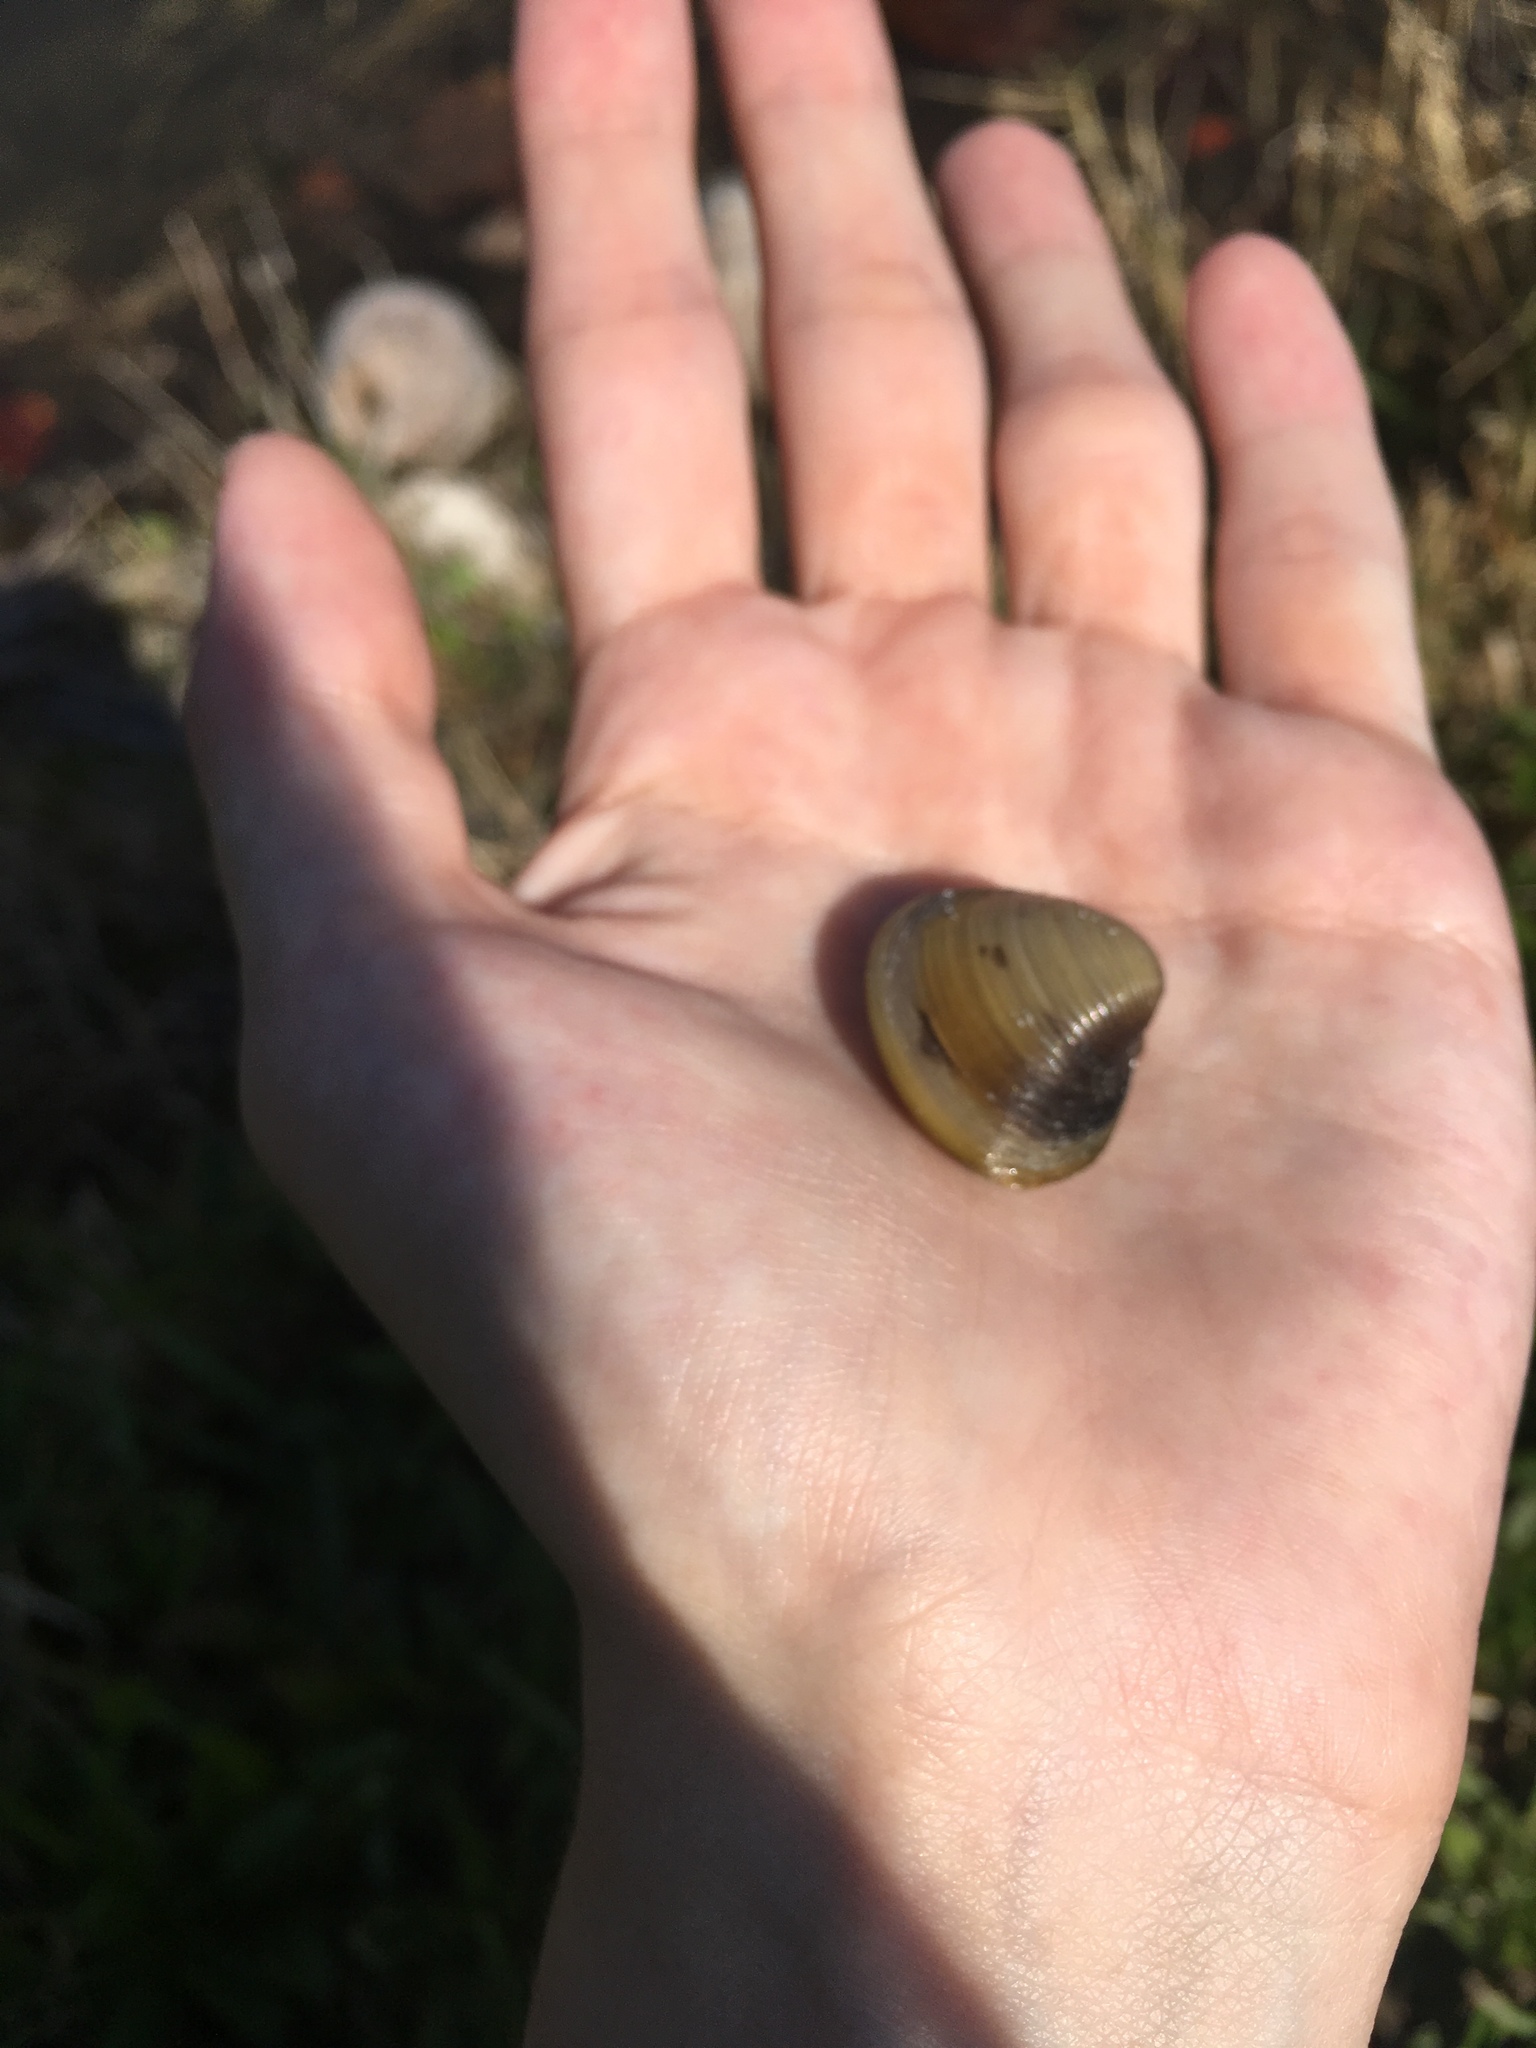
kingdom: Animalia
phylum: Mollusca
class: Bivalvia
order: Venerida
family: Cyrenidae
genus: Corbicula
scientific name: Corbicula fluminea
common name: Asian clam
